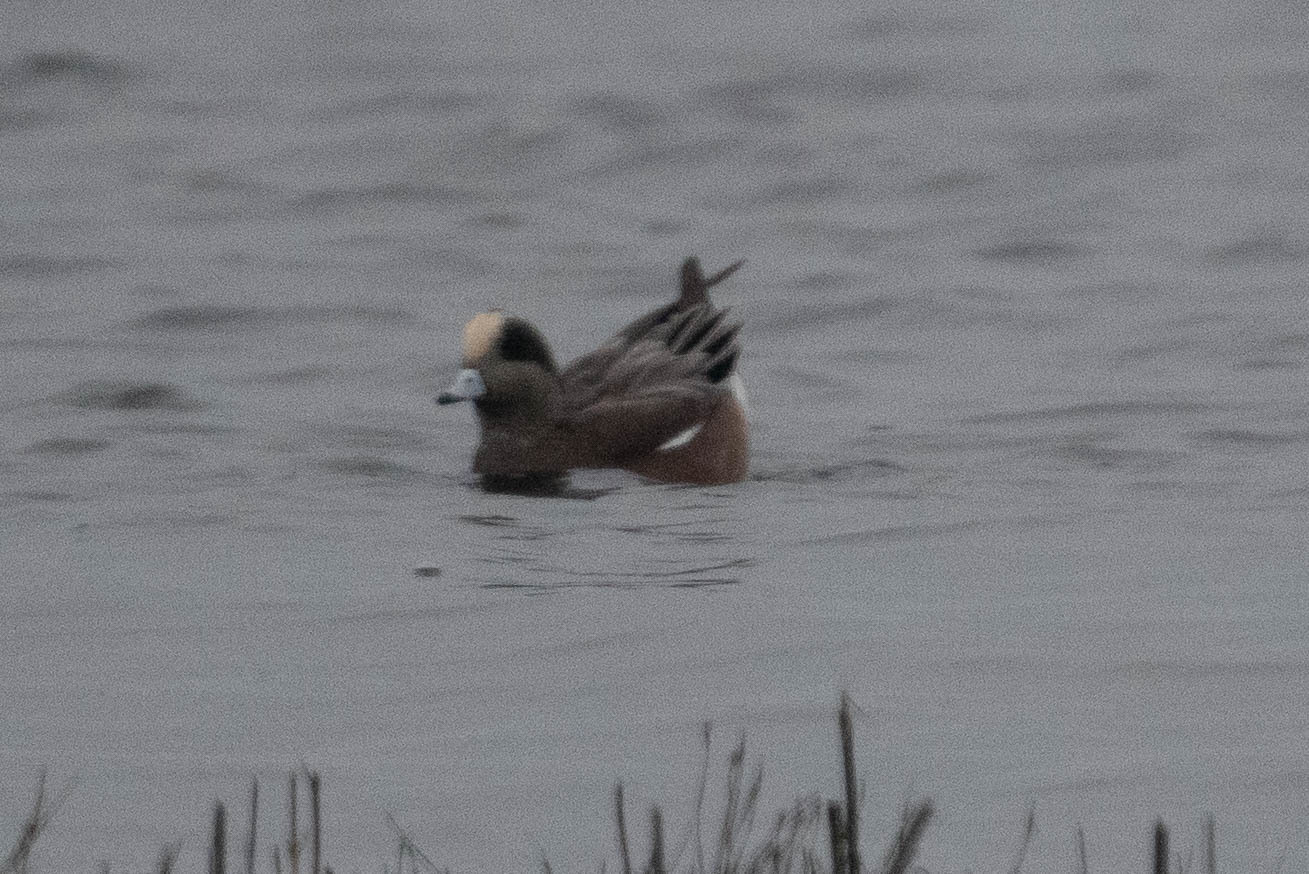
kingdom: Animalia
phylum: Chordata
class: Aves
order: Anseriformes
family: Anatidae
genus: Mareca
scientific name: Mareca americana
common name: American wigeon
